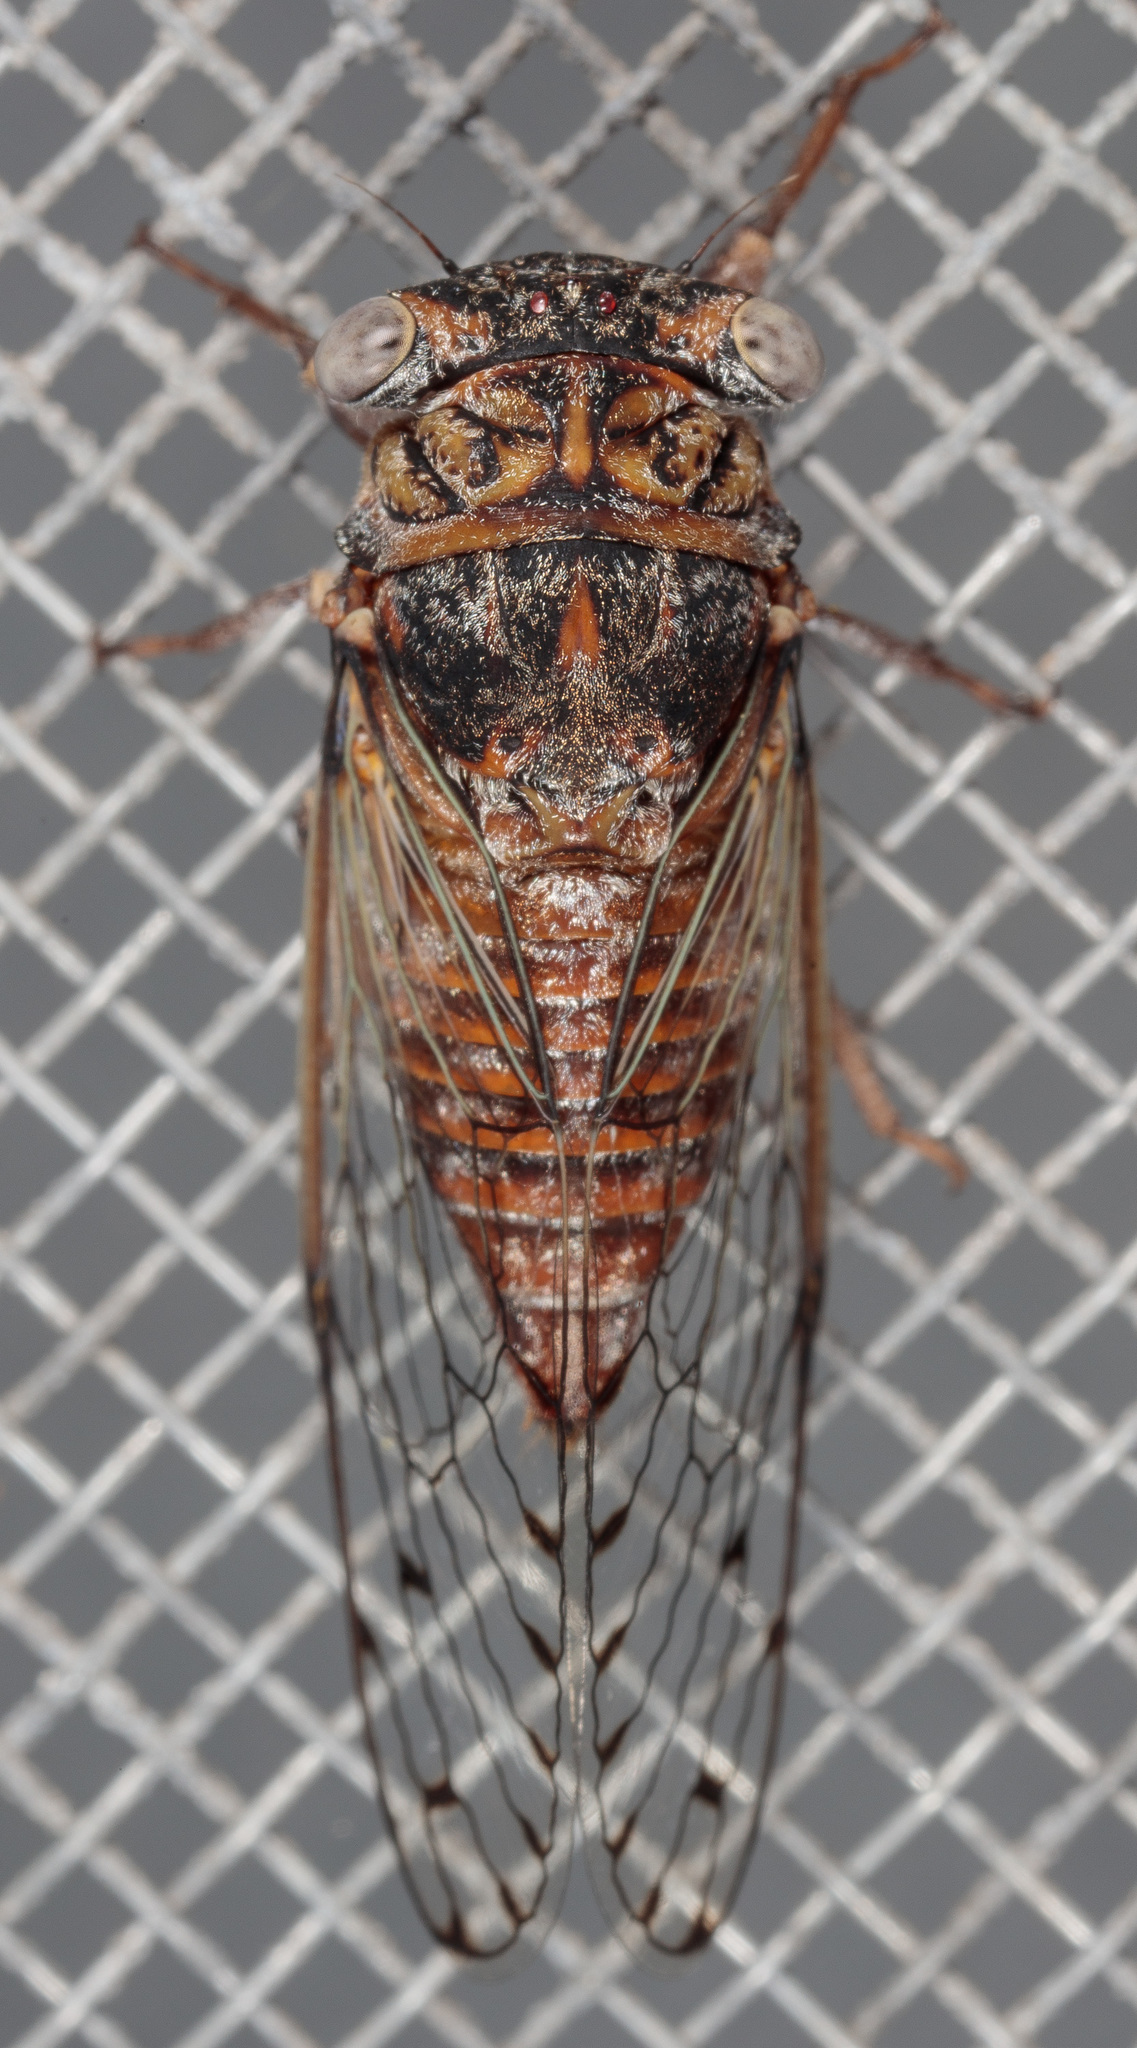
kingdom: Animalia
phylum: Arthropoda
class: Insecta
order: Hemiptera
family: Cicadidae
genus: Pacarina
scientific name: Pacarina puella
